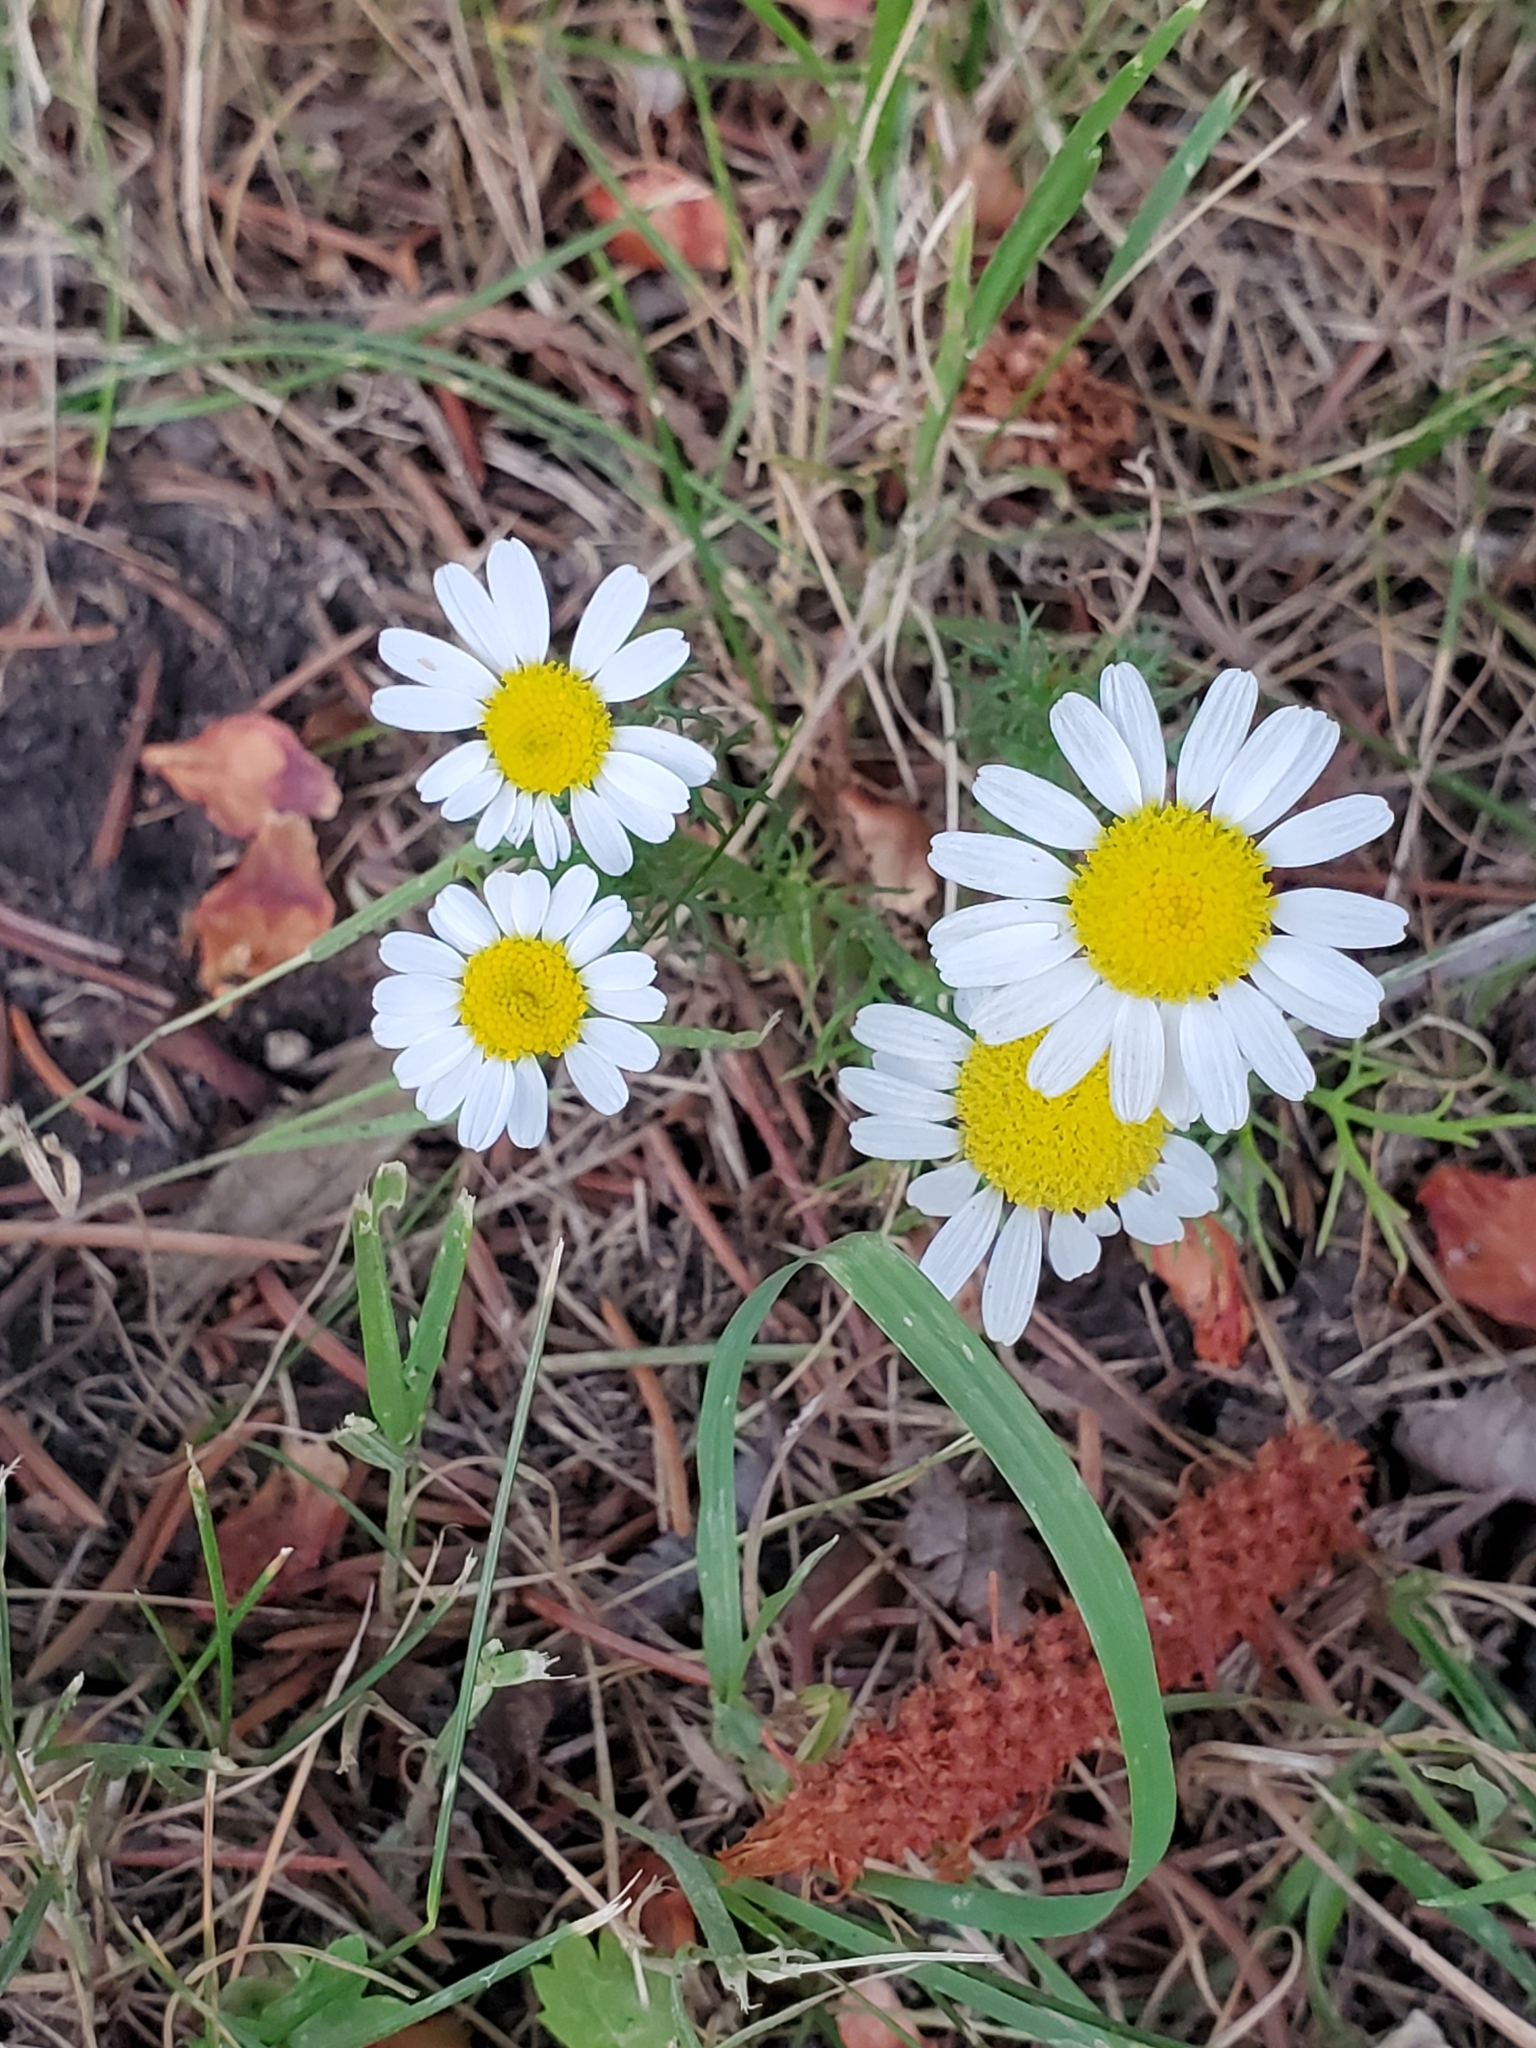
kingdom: Plantae
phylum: Tracheophyta
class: Magnoliopsida
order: Asterales
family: Asteraceae
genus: Tripleurospermum
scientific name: Tripleurospermum inodorum
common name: Scentless mayweed
